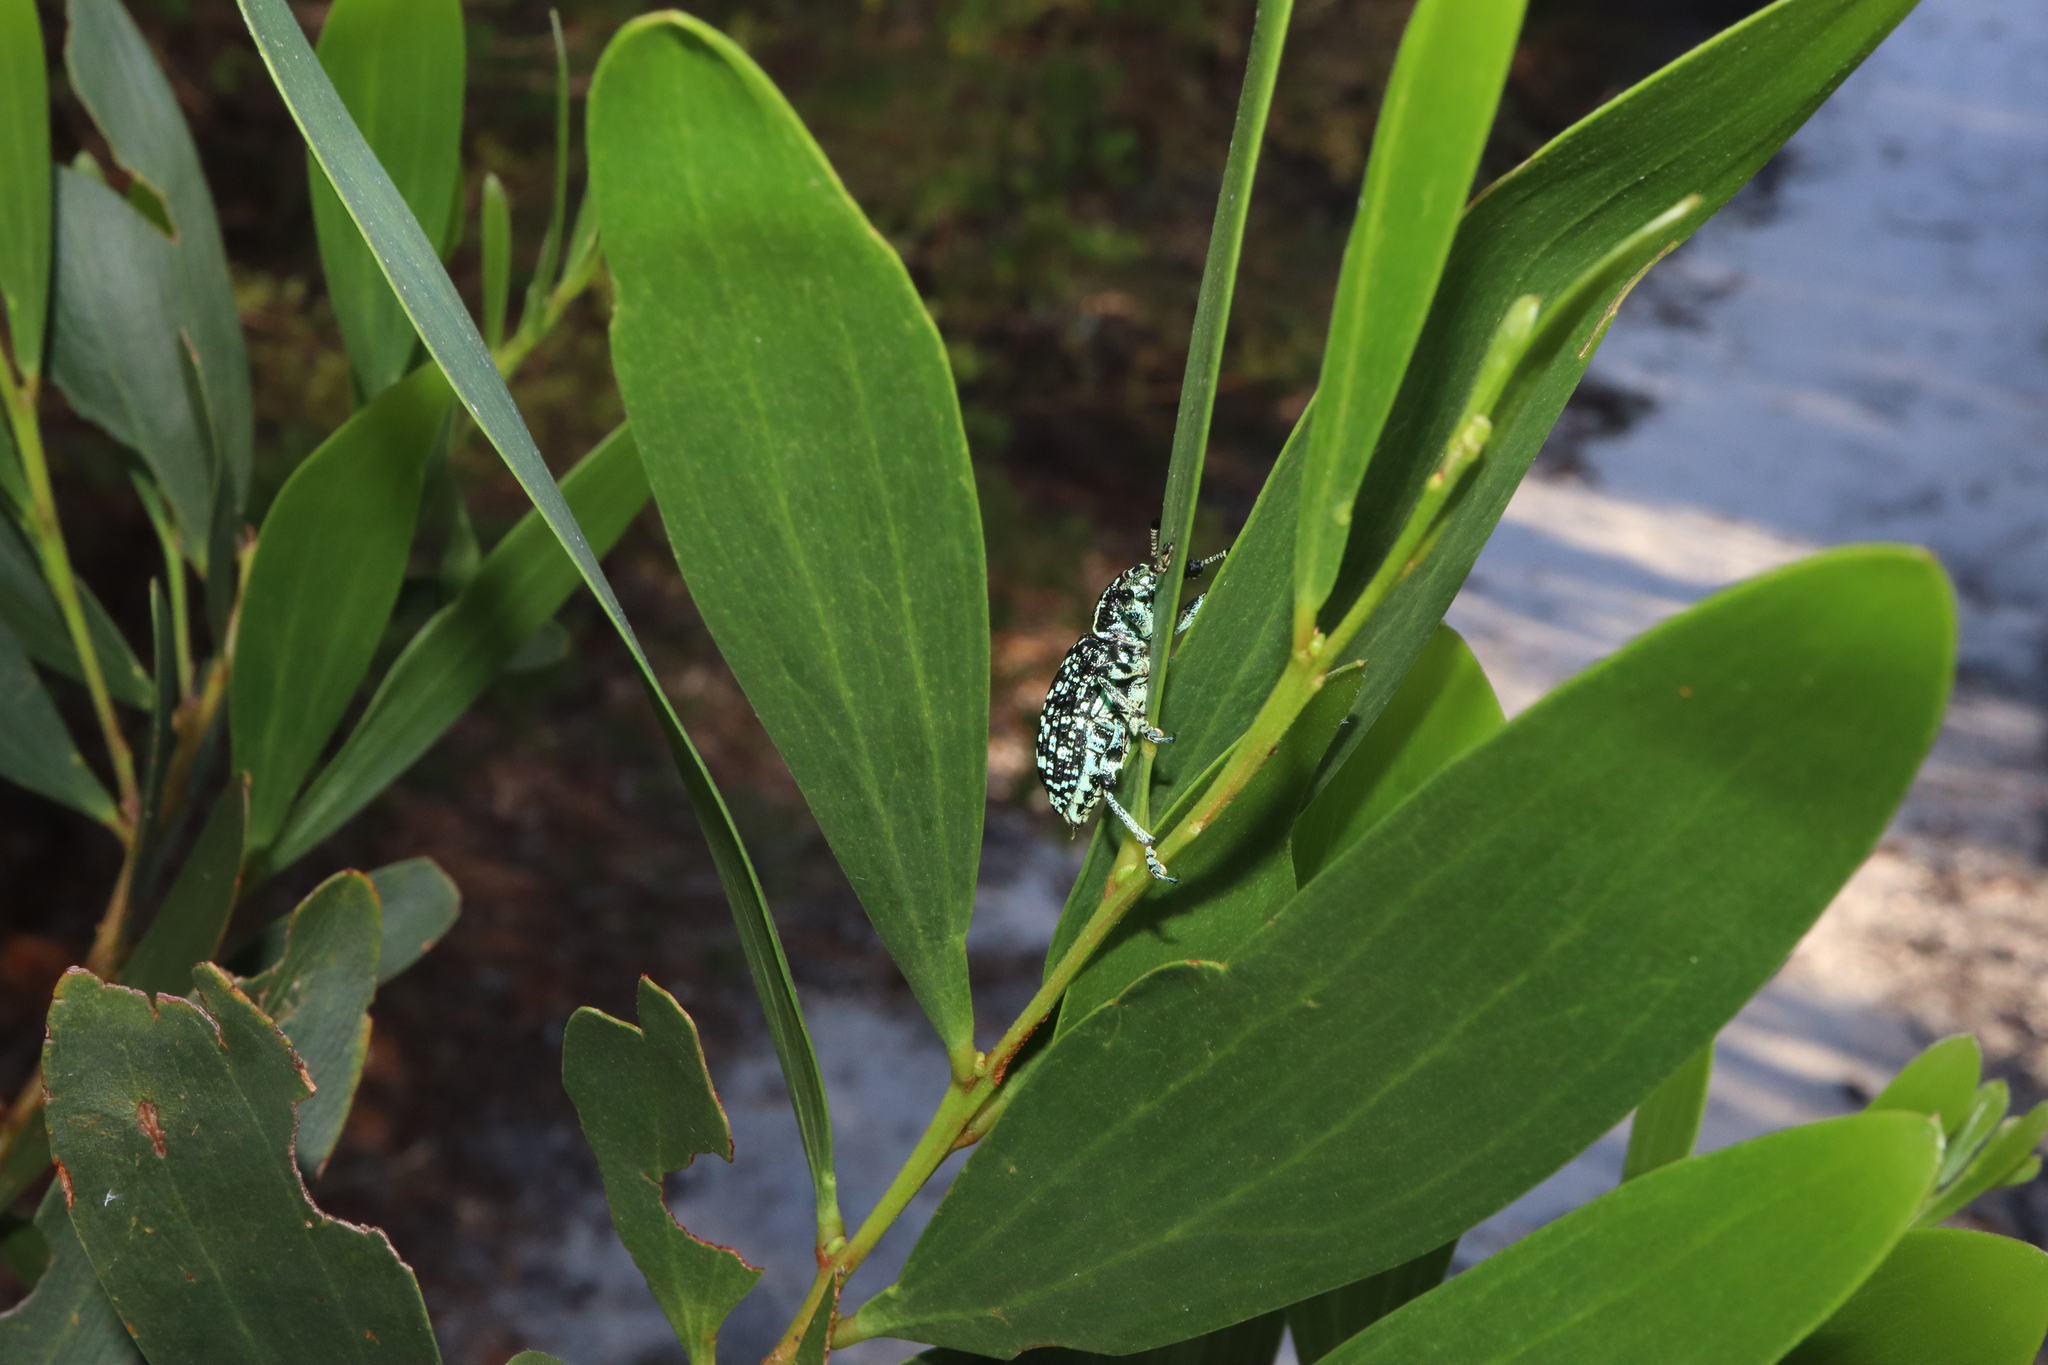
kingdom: Animalia
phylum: Arthropoda
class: Insecta
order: Coleoptera
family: Curculionidae
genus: Chrysolopus
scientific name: Chrysolopus spectabilis
